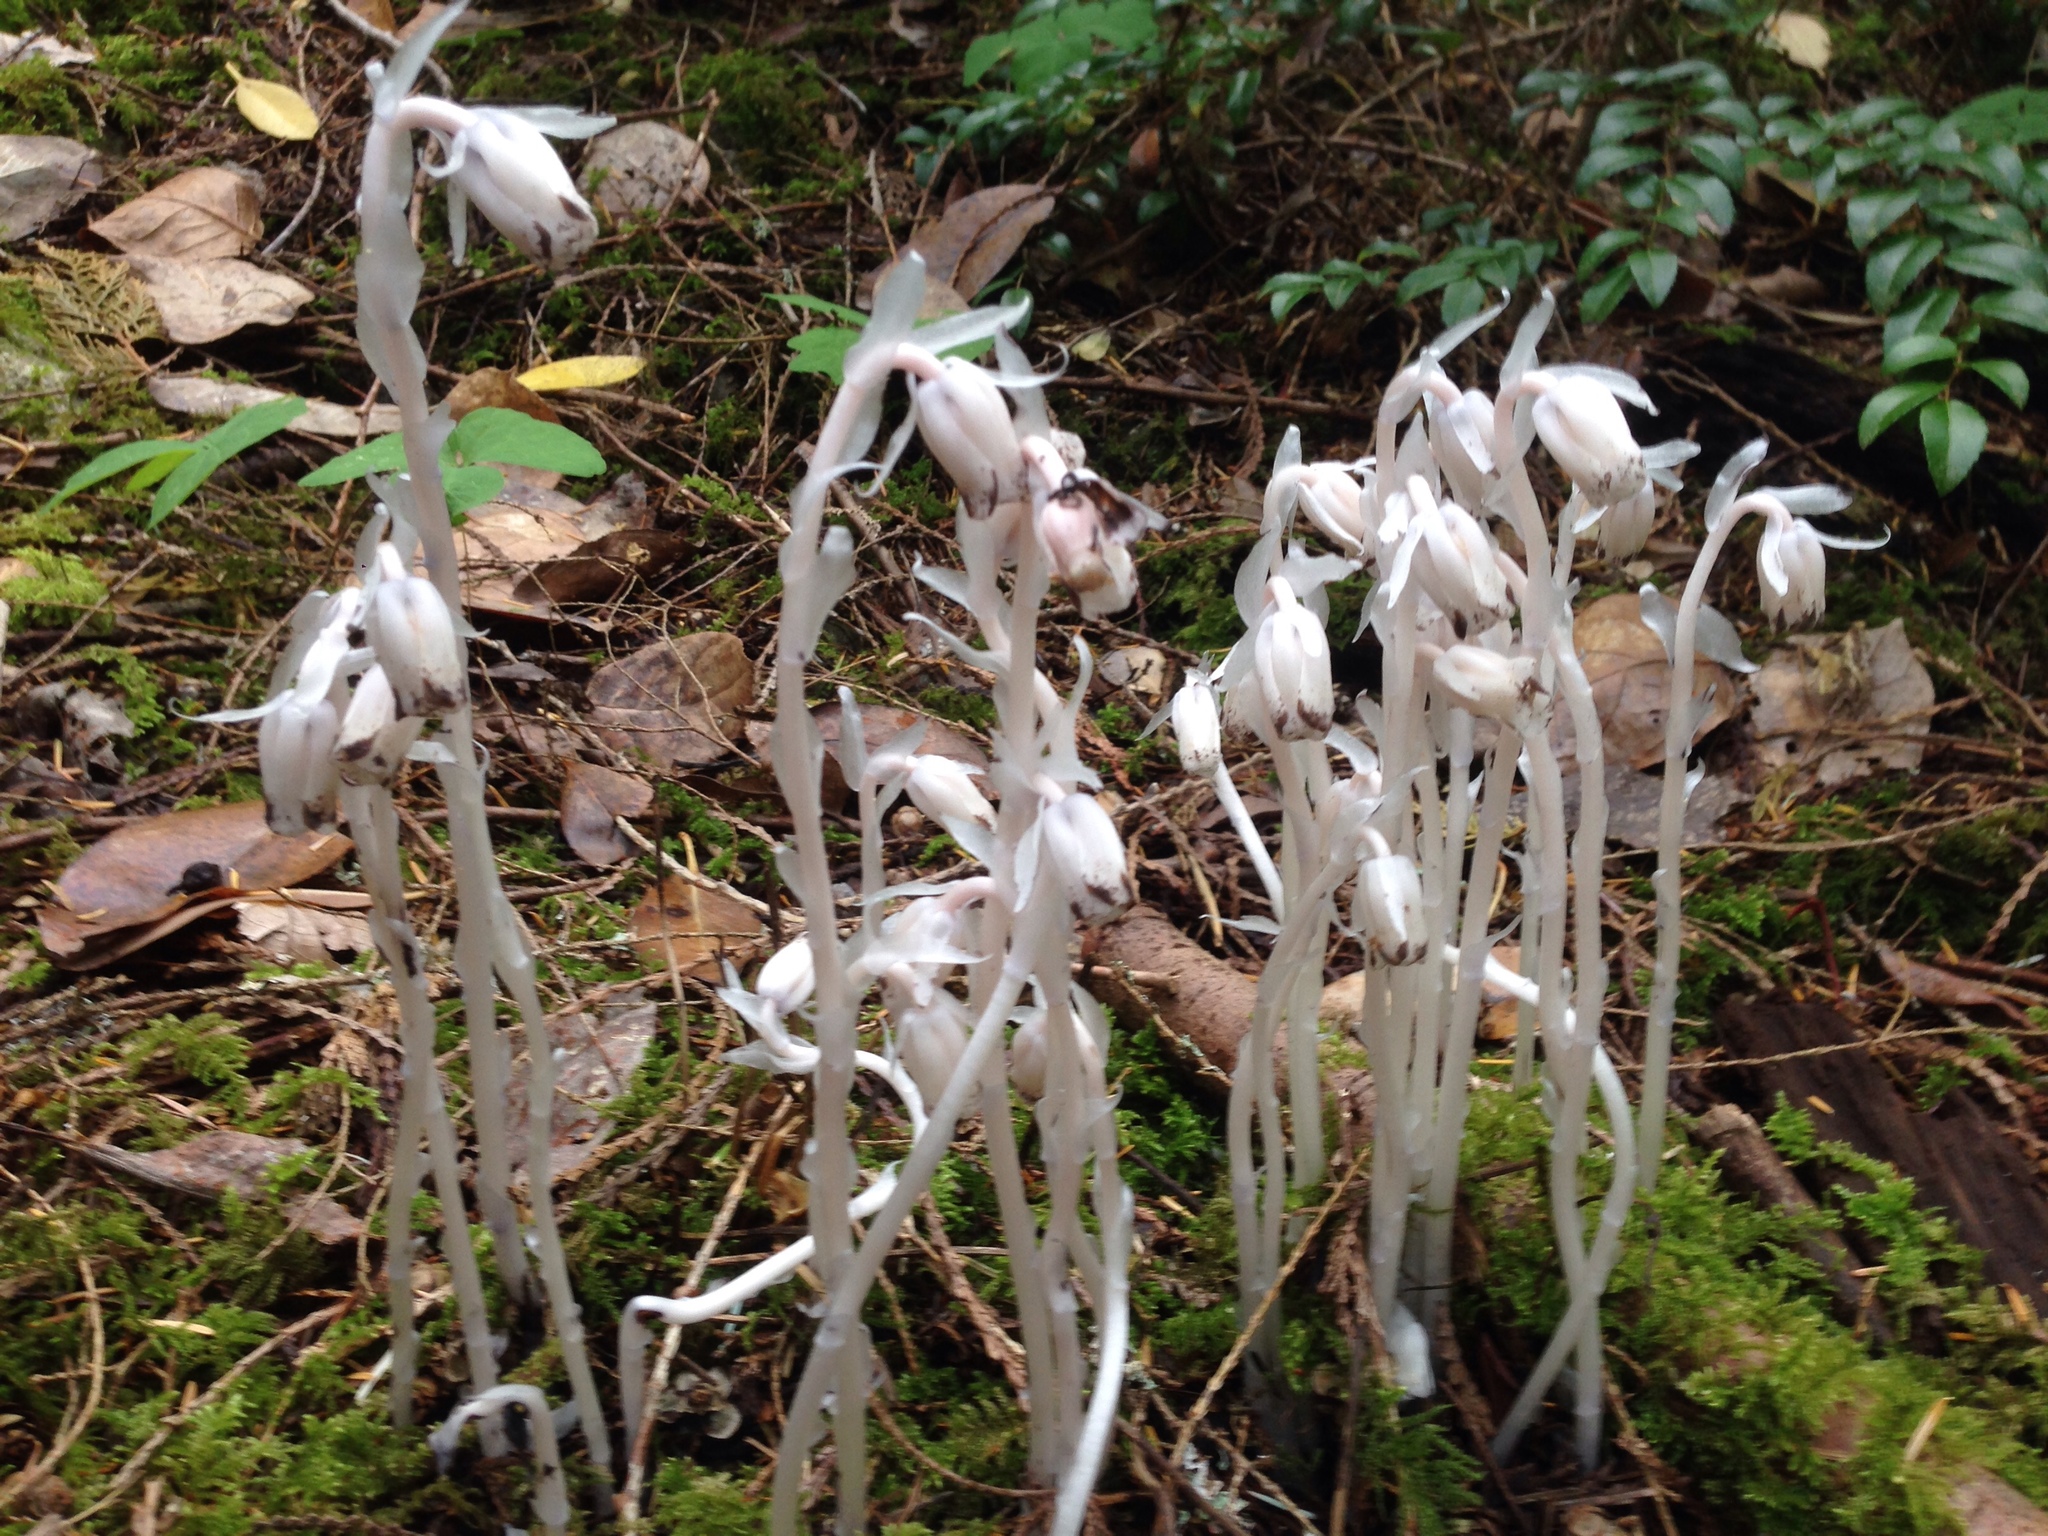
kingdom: Plantae
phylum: Tracheophyta
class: Magnoliopsida
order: Ericales
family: Ericaceae
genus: Monotropa
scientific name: Monotropa uniflora
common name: Convulsion root
